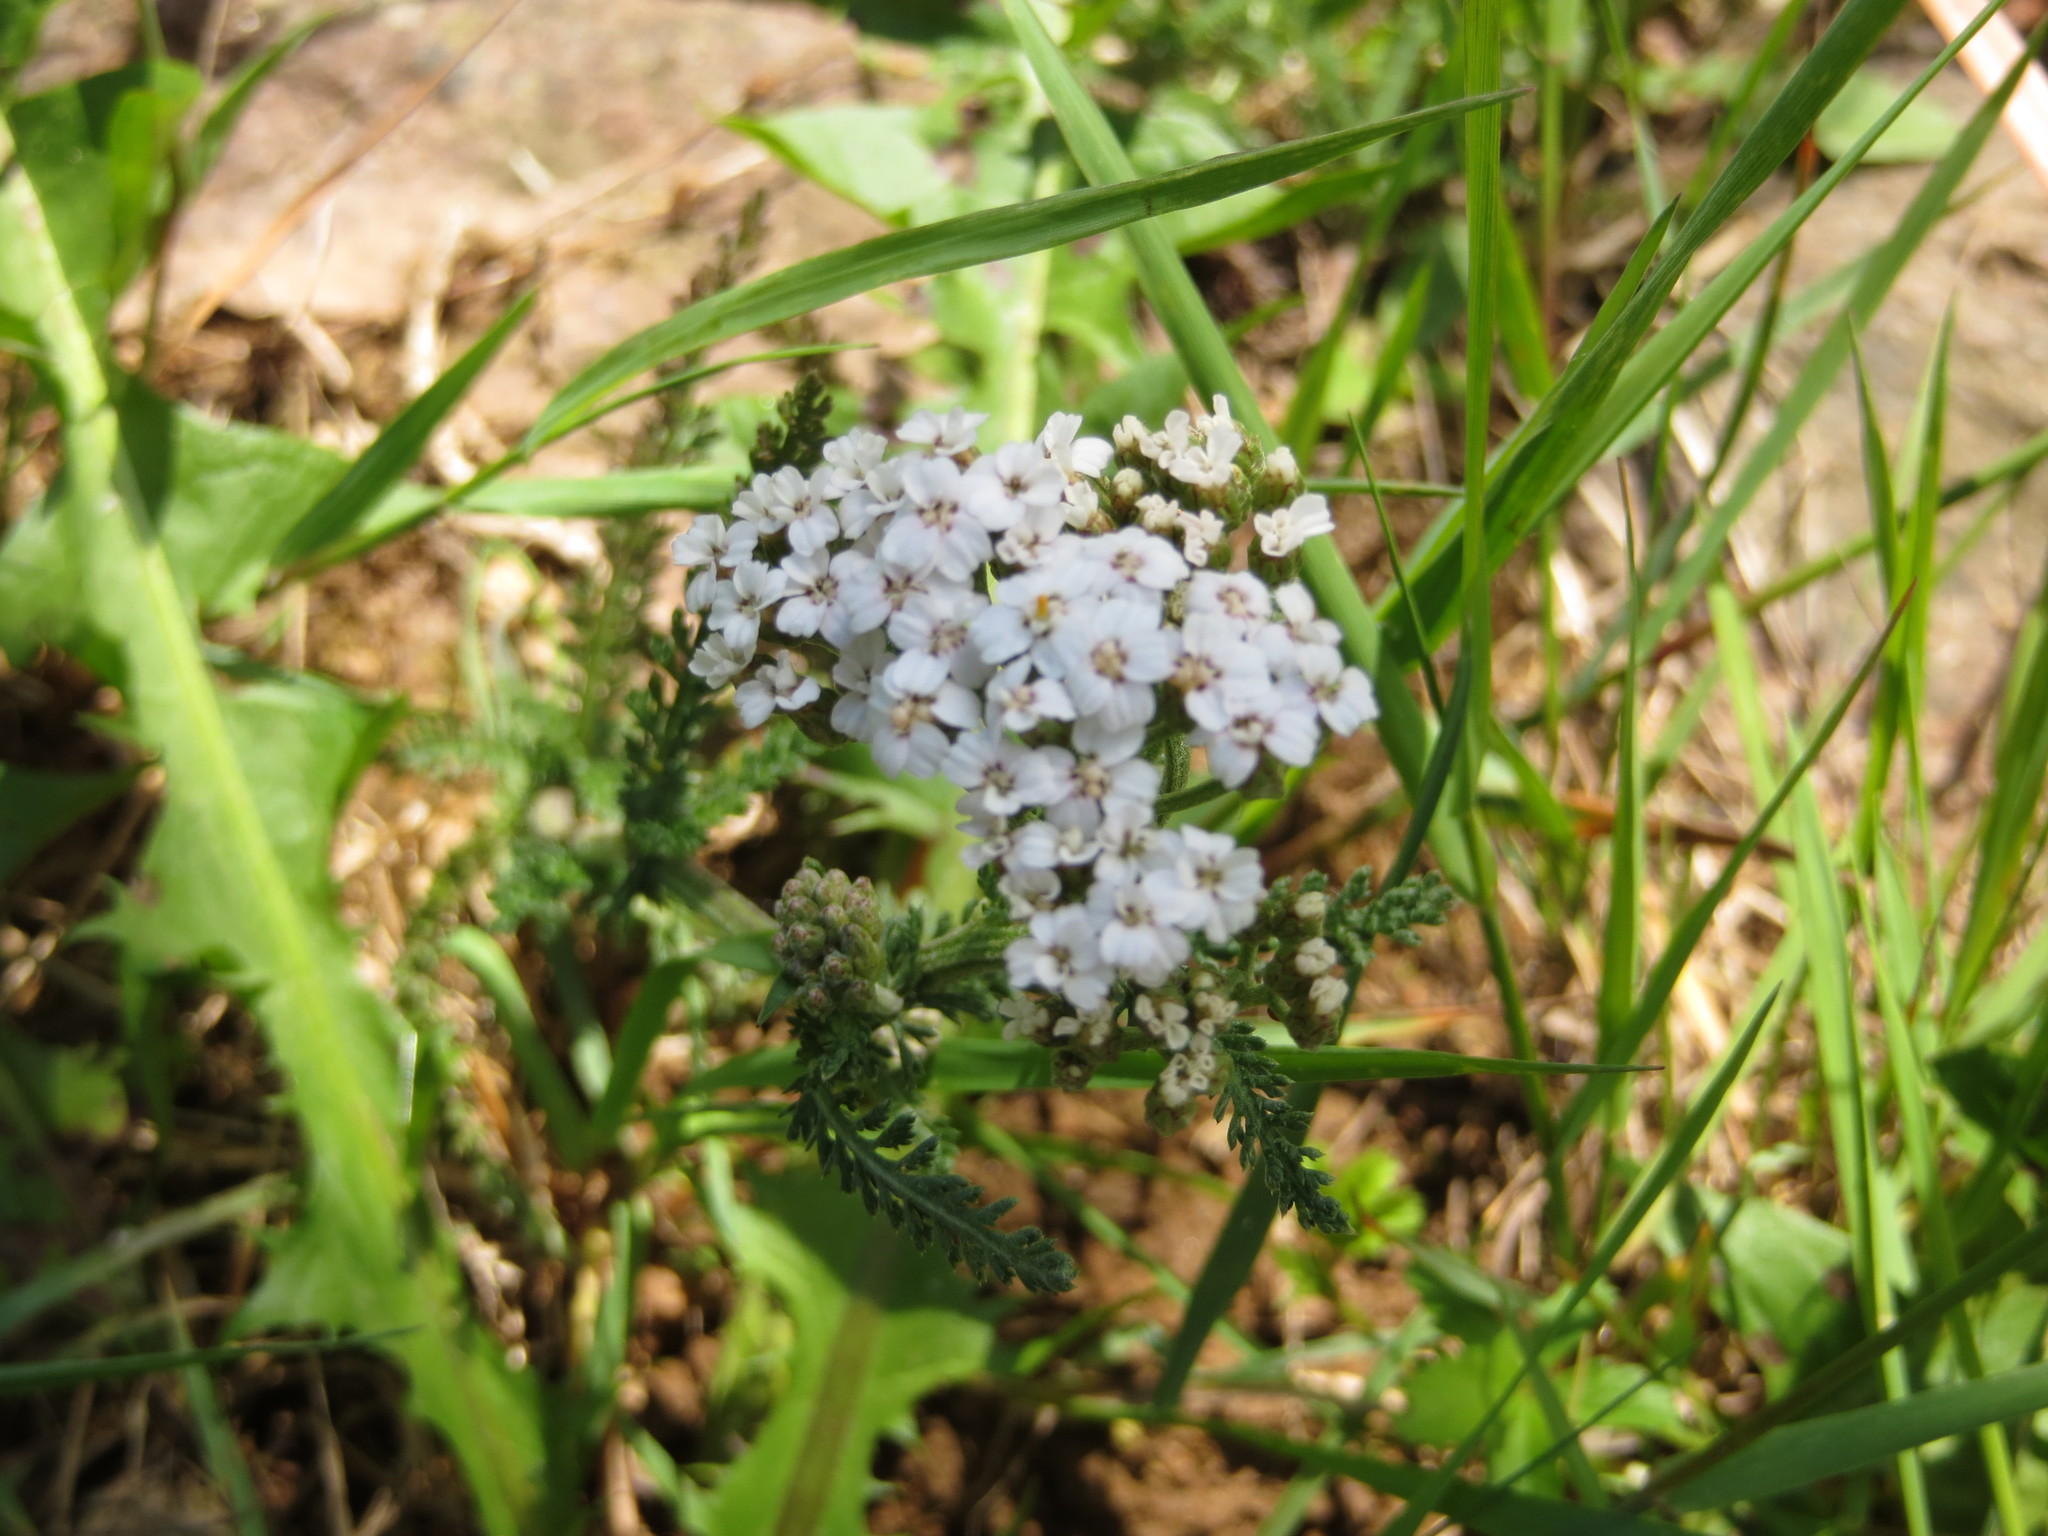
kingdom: Plantae
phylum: Tracheophyta
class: Magnoliopsida
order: Asterales
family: Asteraceae
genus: Achillea
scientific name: Achillea millefolium
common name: Yarrow
